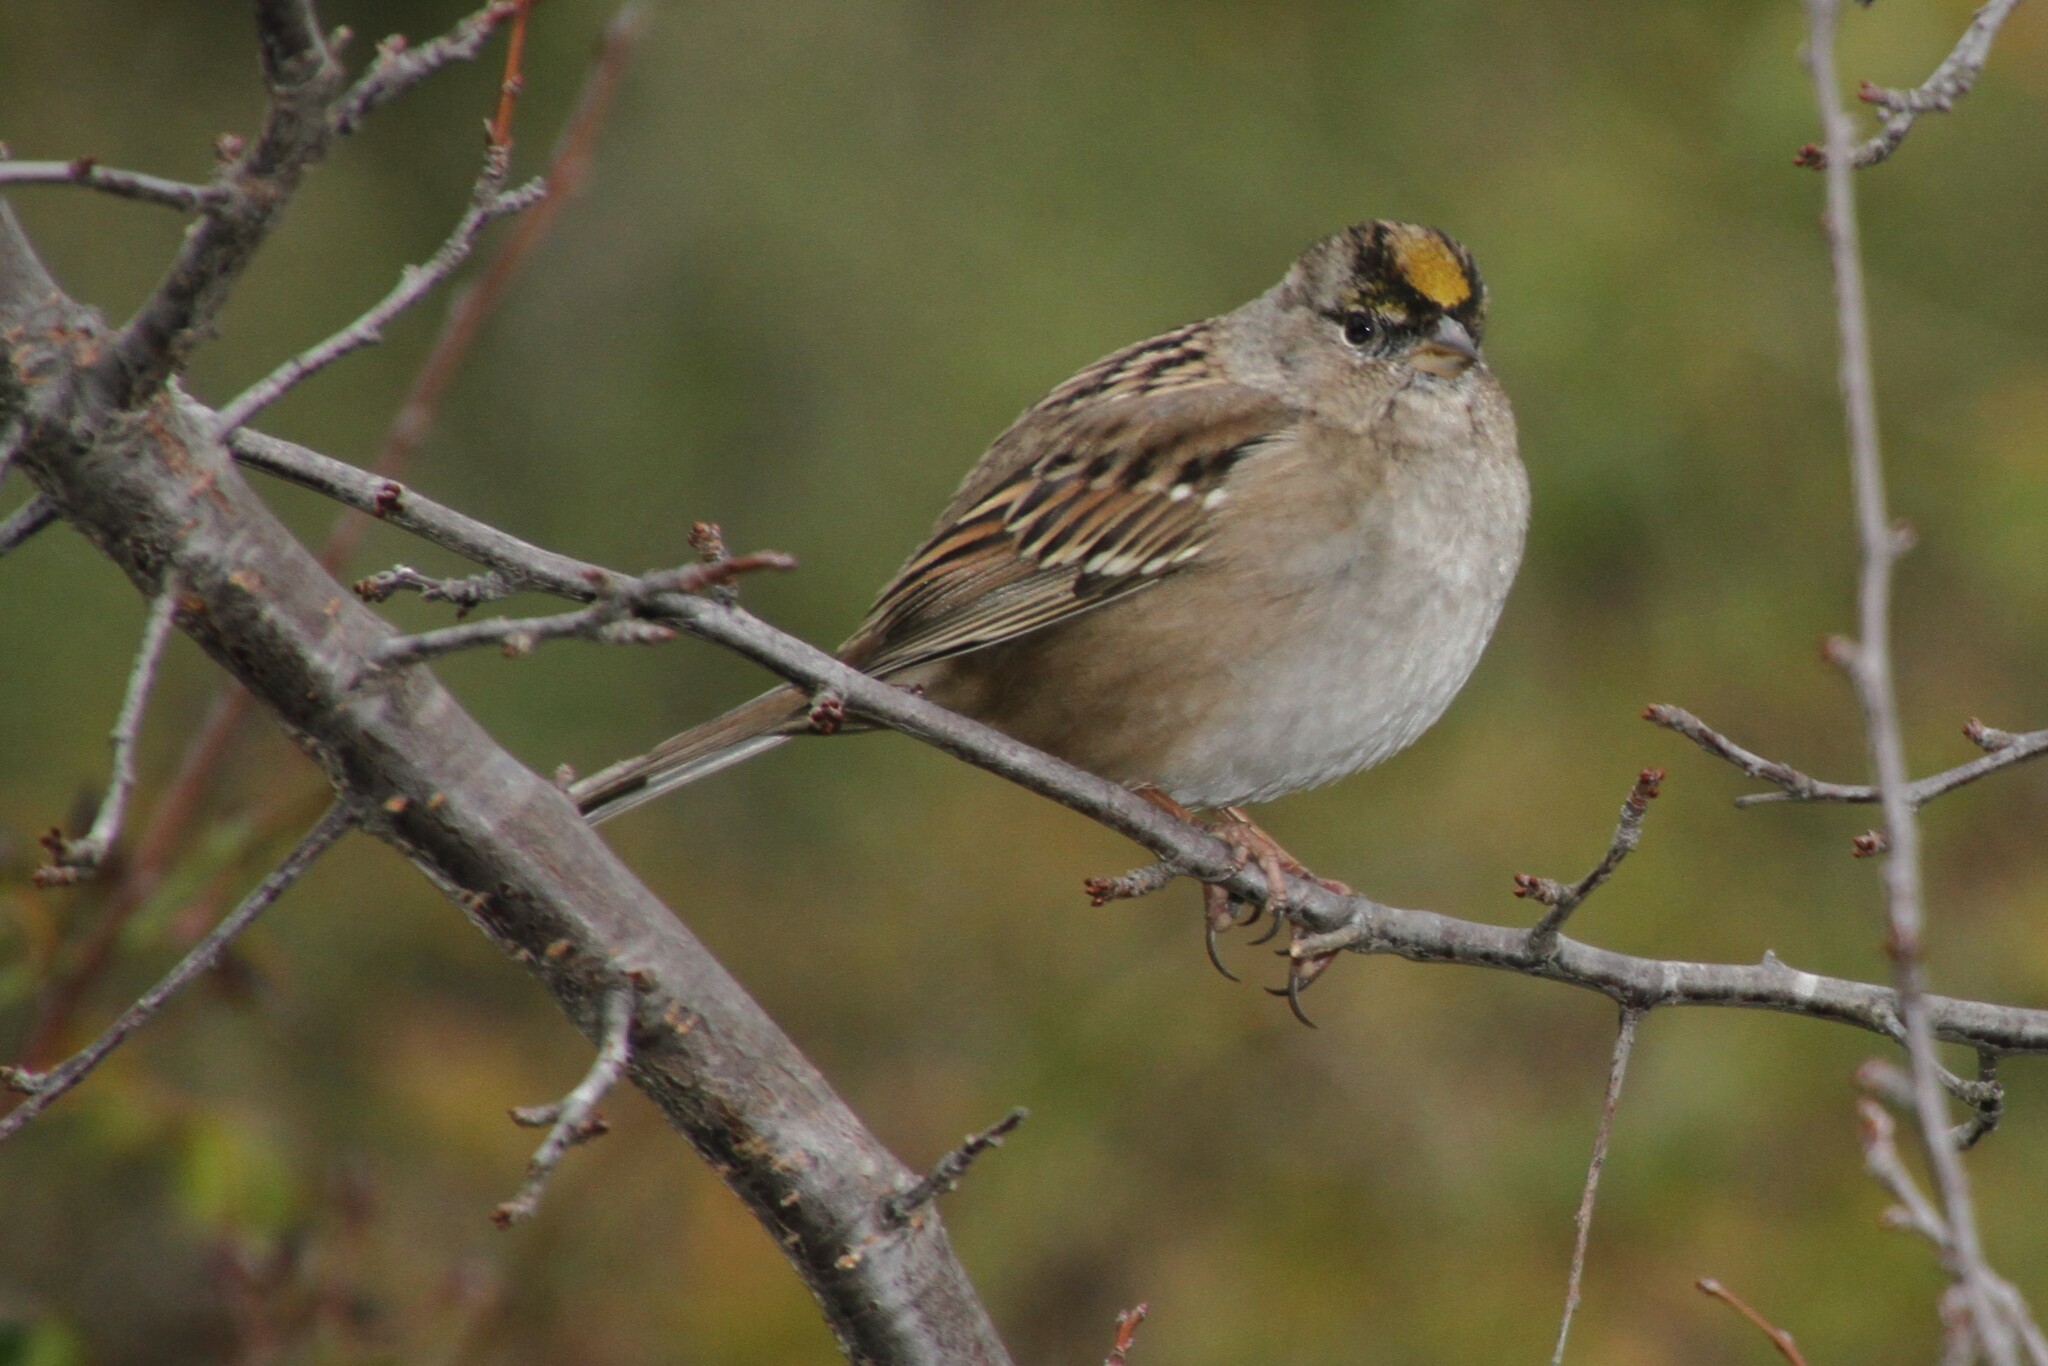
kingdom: Animalia
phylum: Chordata
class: Aves
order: Passeriformes
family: Passerellidae
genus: Zonotrichia
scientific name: Zonotrichia atricapilla
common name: Golden-crowned sparrow
